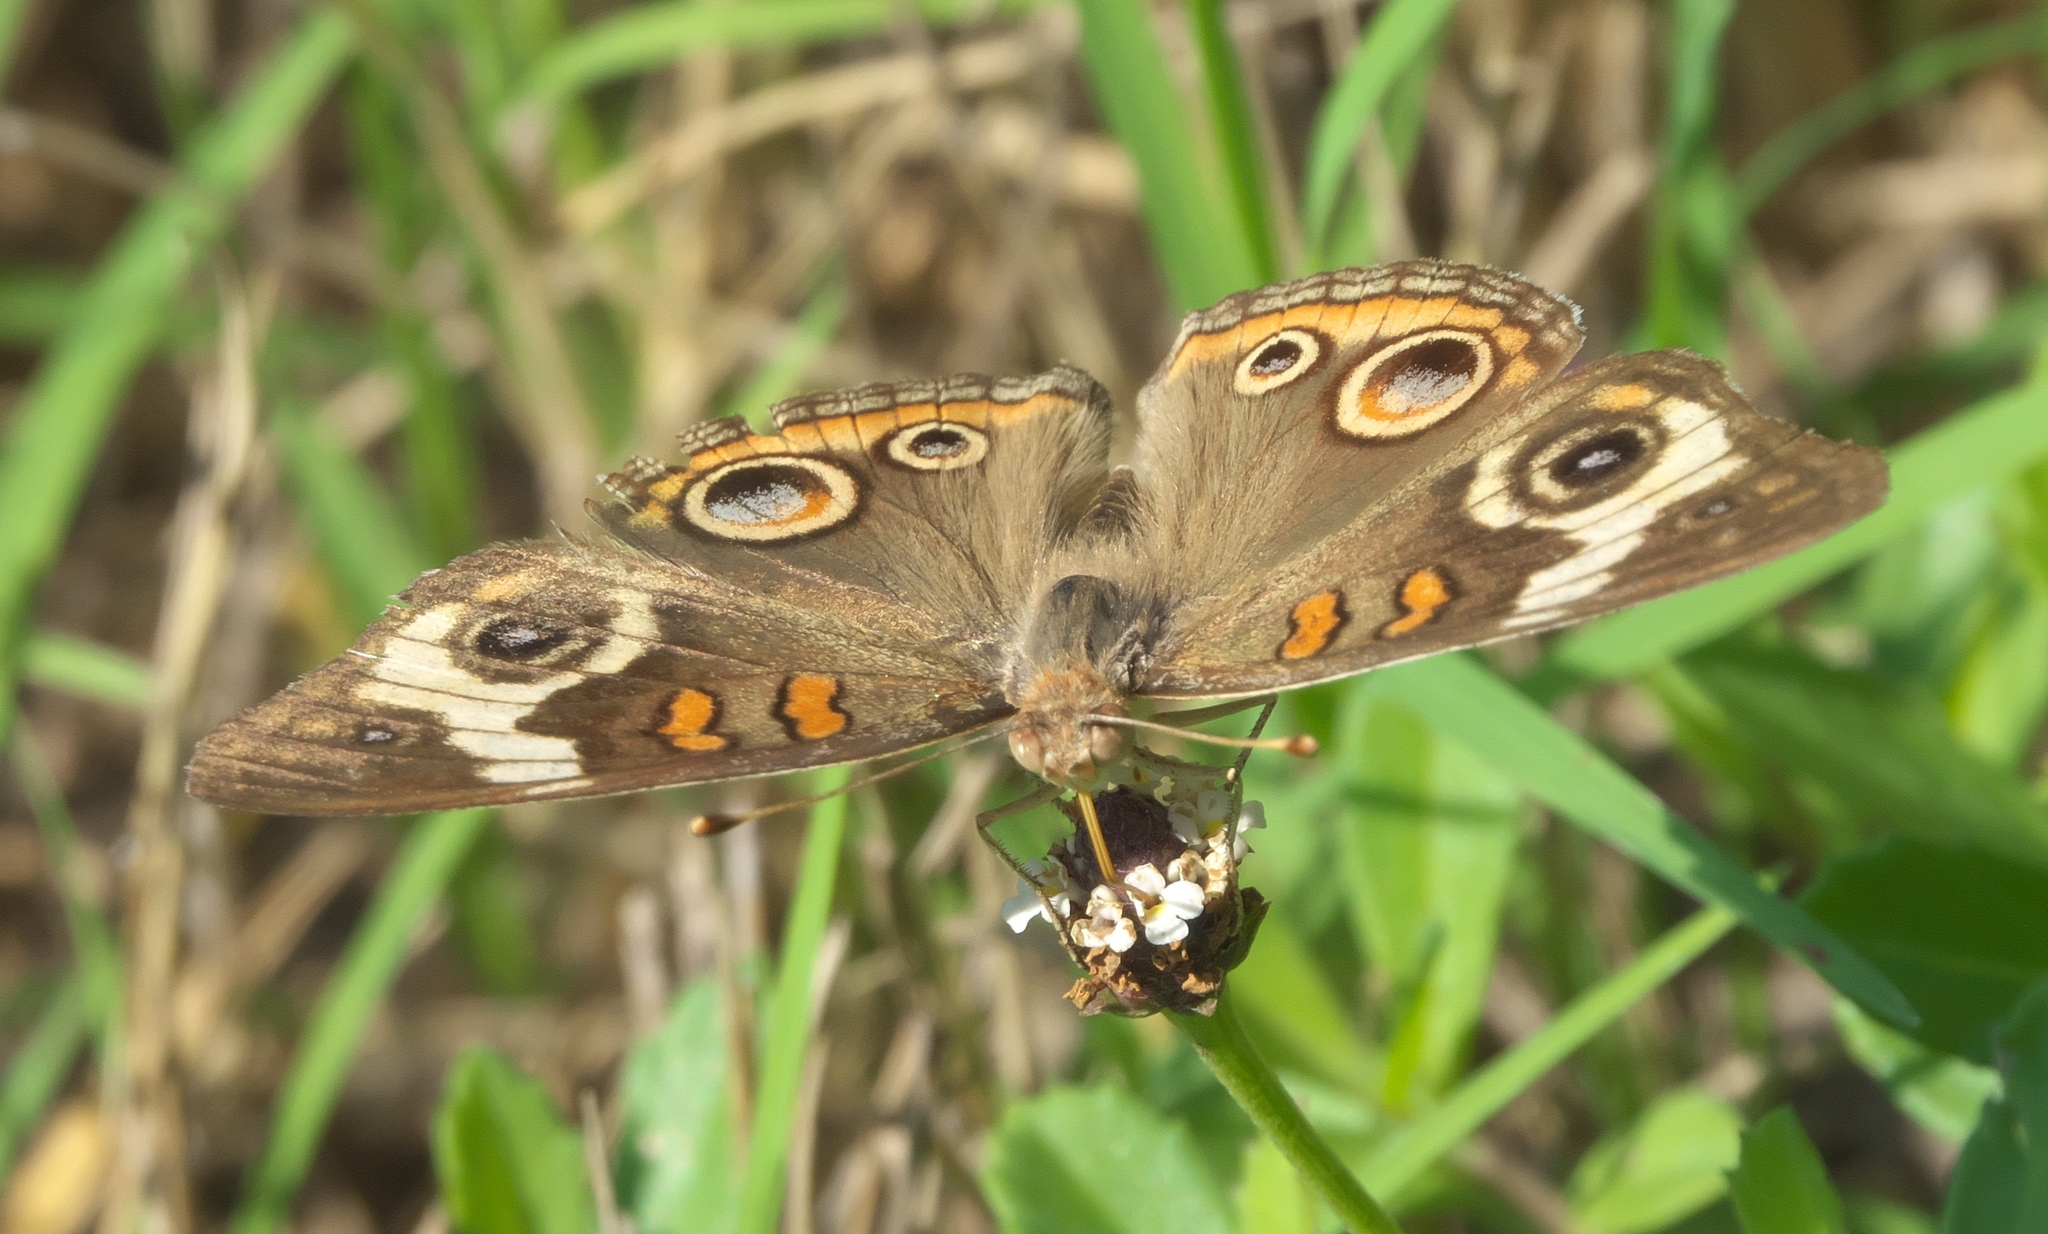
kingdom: Animalia
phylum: Arthropoda
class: Insecta
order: Lepidoptera
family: Nymphalidae
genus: Junonia
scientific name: Junonia coenia
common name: Common buckeye
